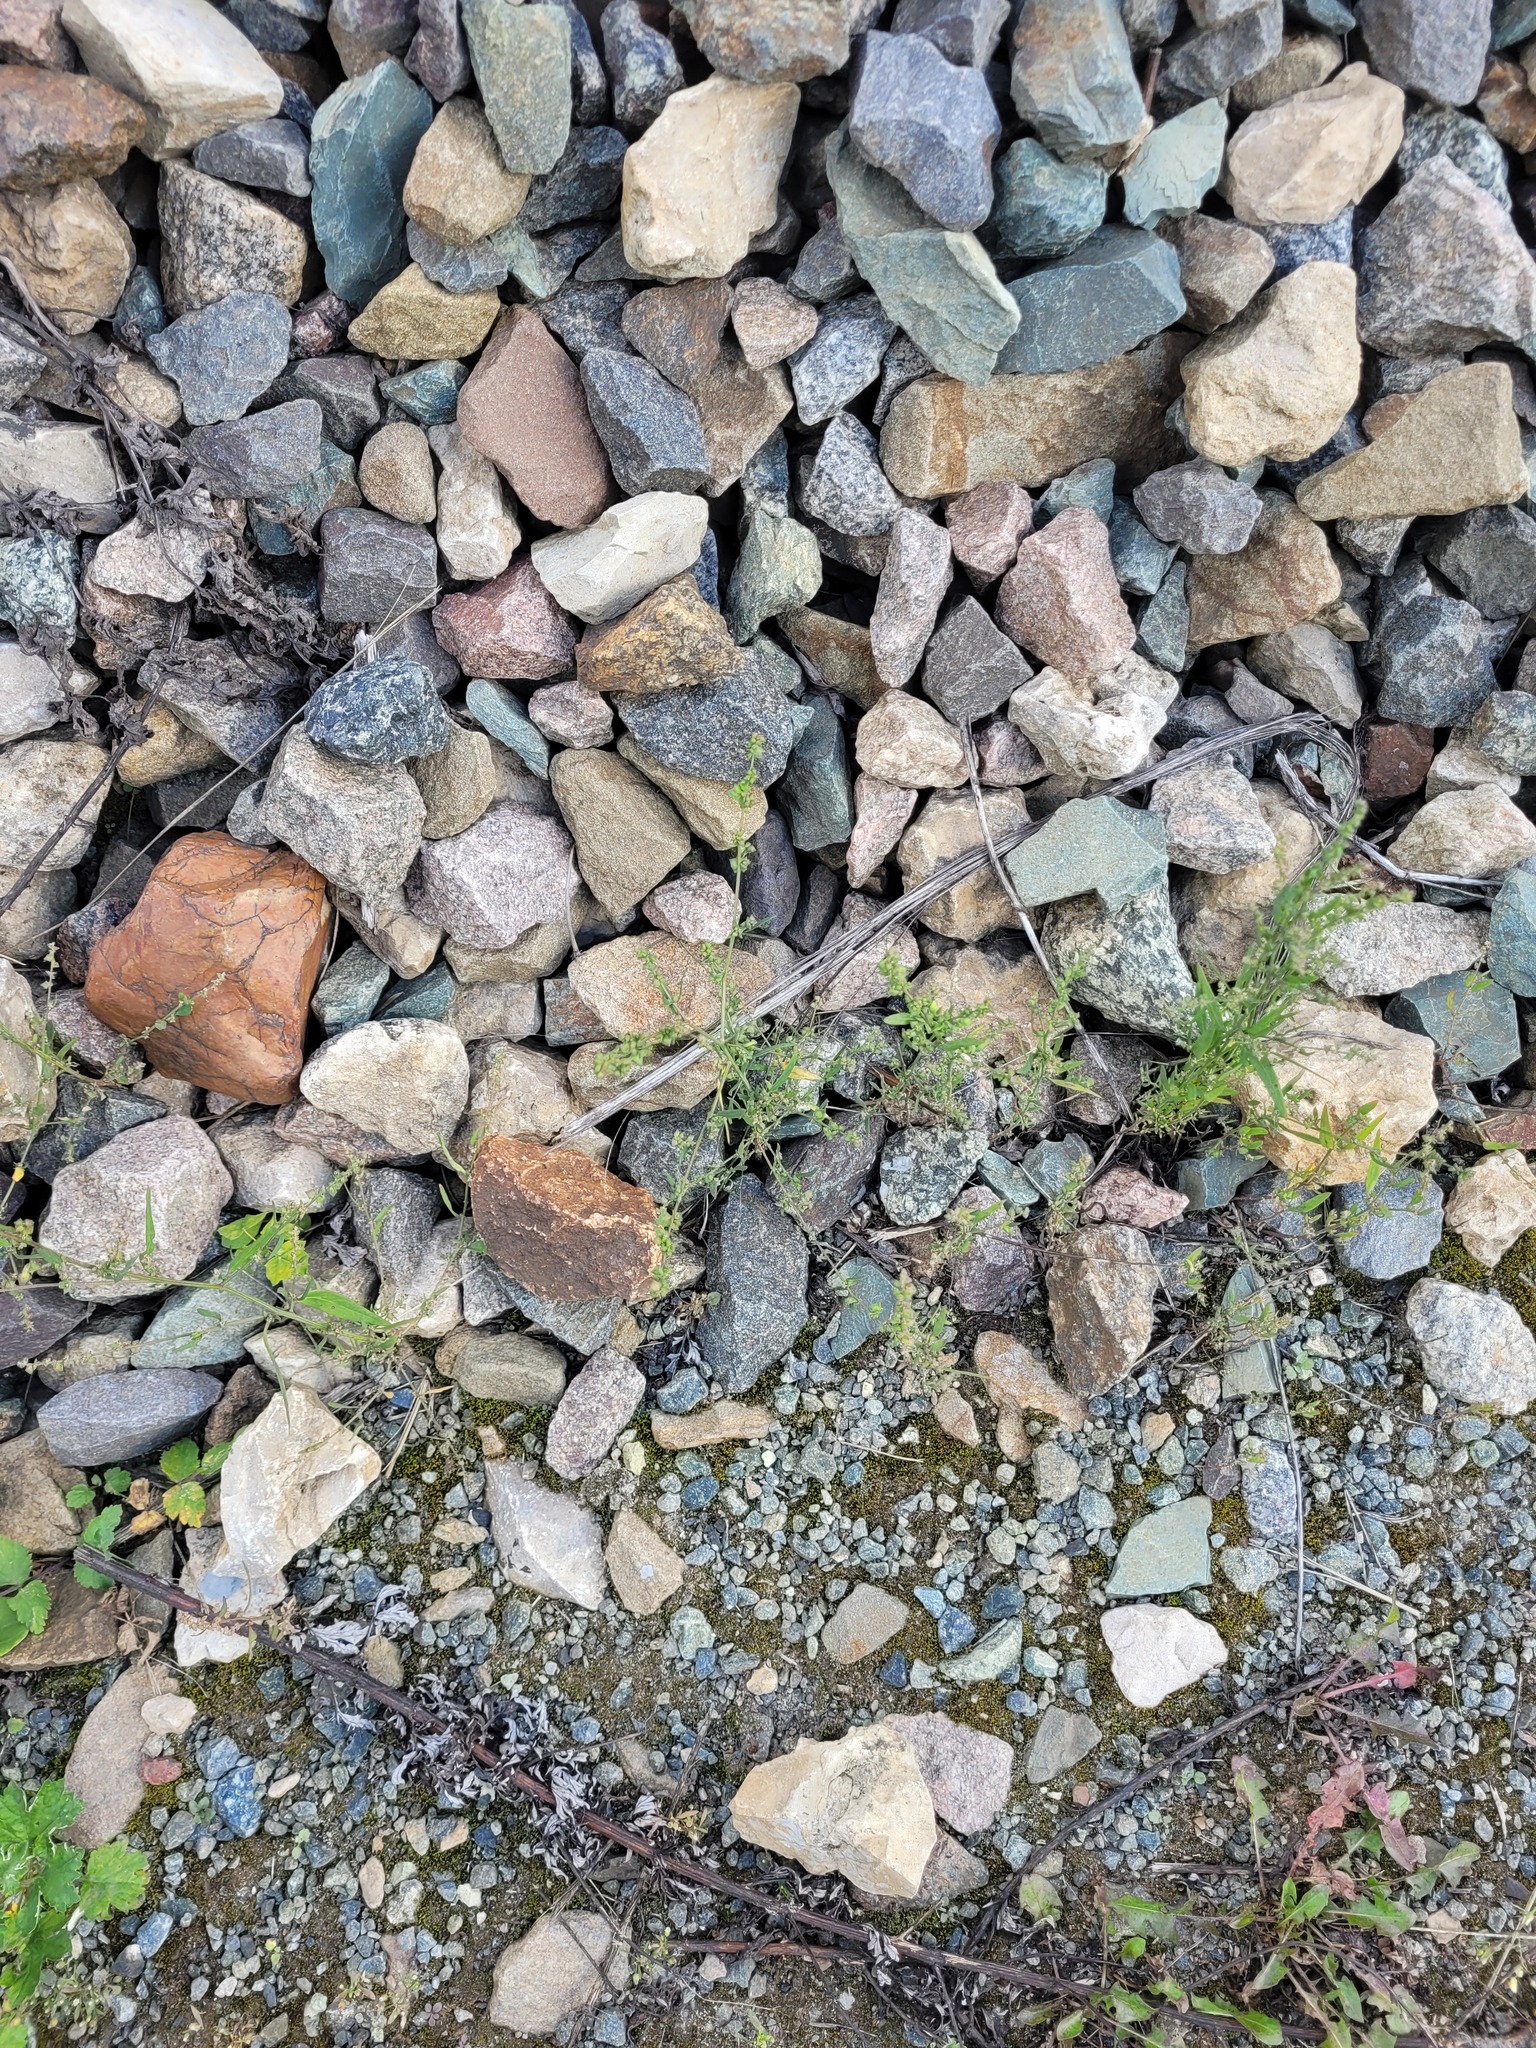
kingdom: Plantae
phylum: Tracheophyta
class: Magnoliopsida
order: Caryophyllales
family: Amaranthaceae
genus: Atriplex
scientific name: Atriplex patula
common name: Common orache
